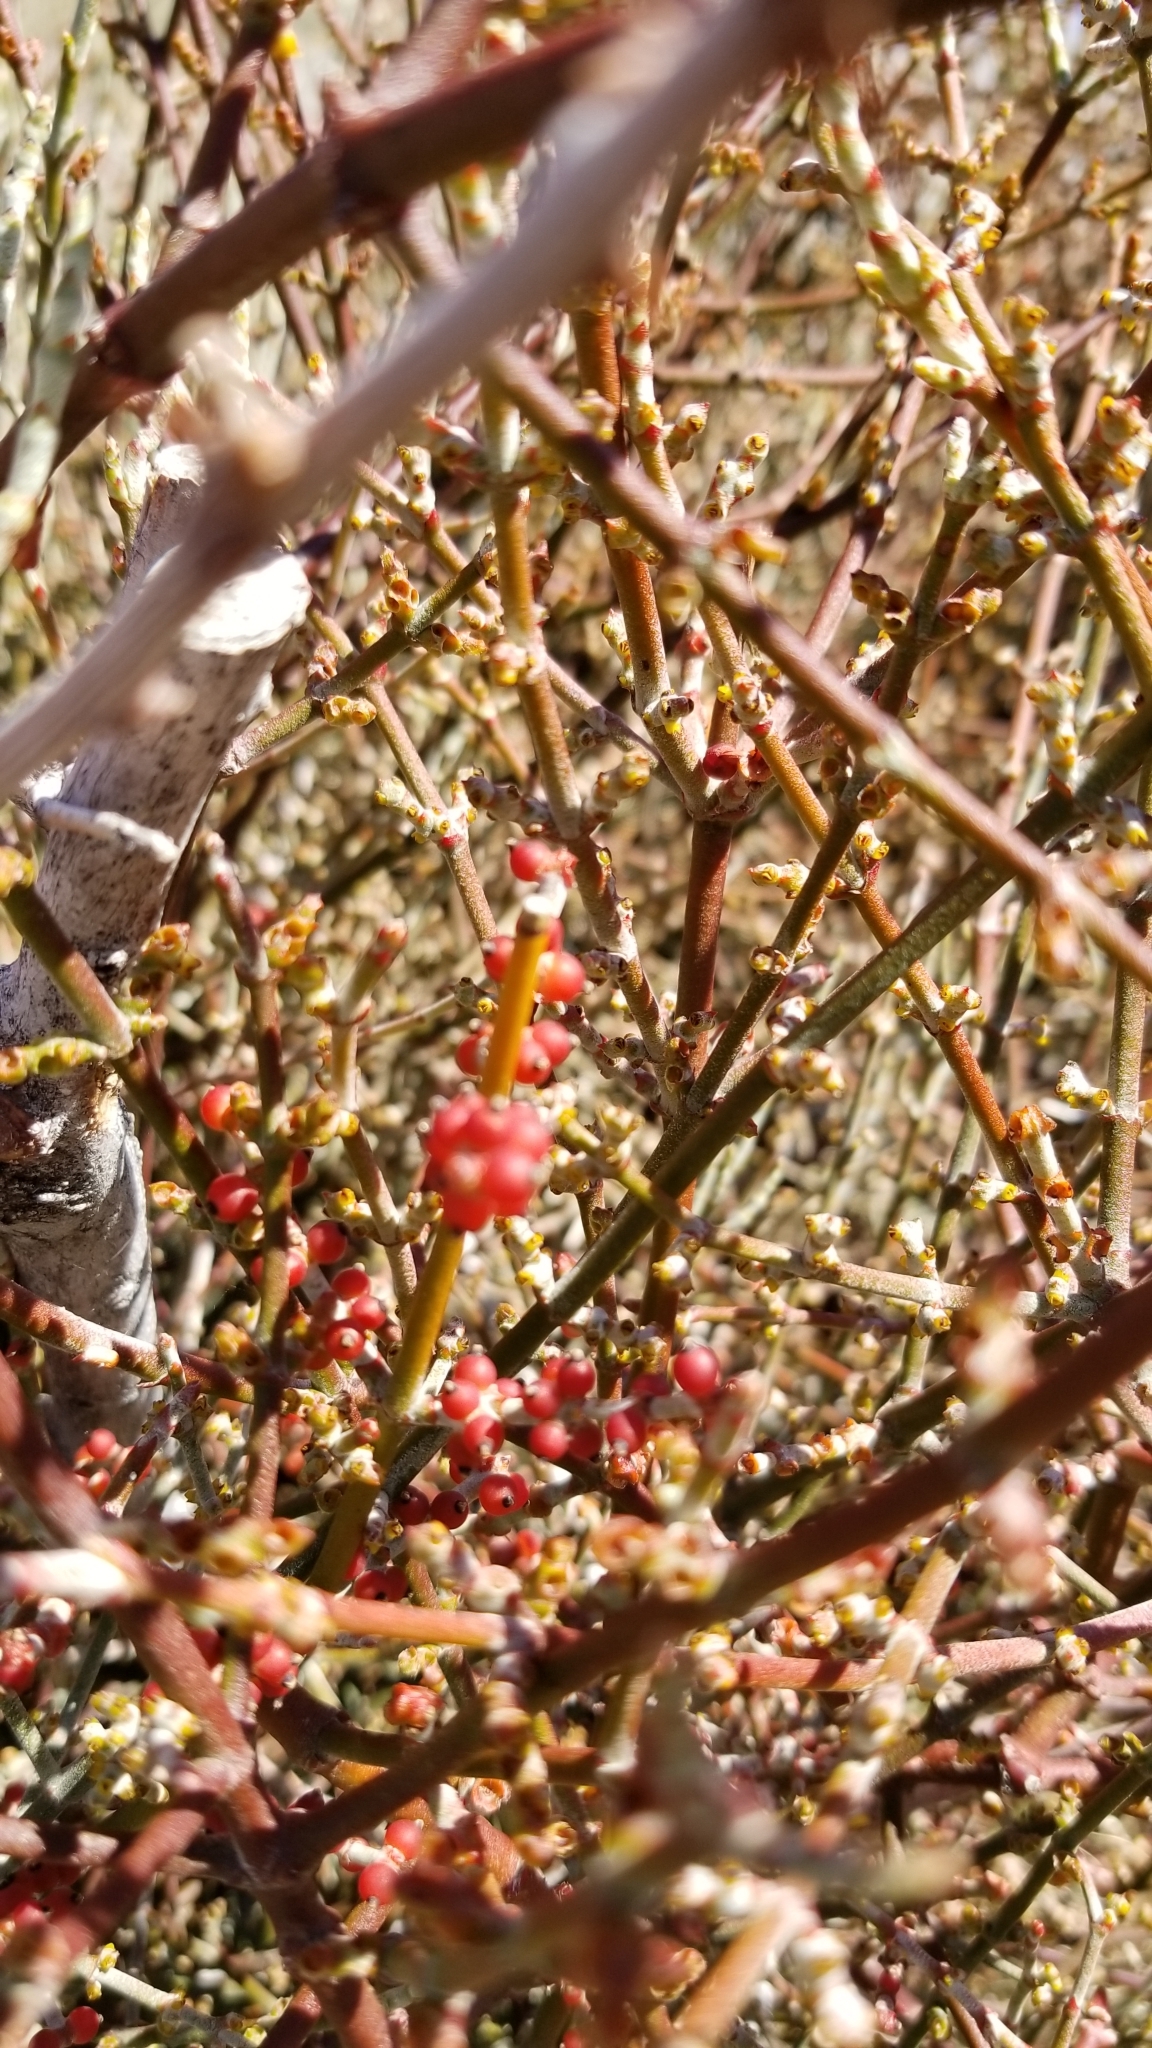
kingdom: Plantae
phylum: Tracheophyta
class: Magnoliopsida
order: Santalales
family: Viscaceae
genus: Phoradendron
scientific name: Phoradendron californicum
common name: Acacia mistletoe
